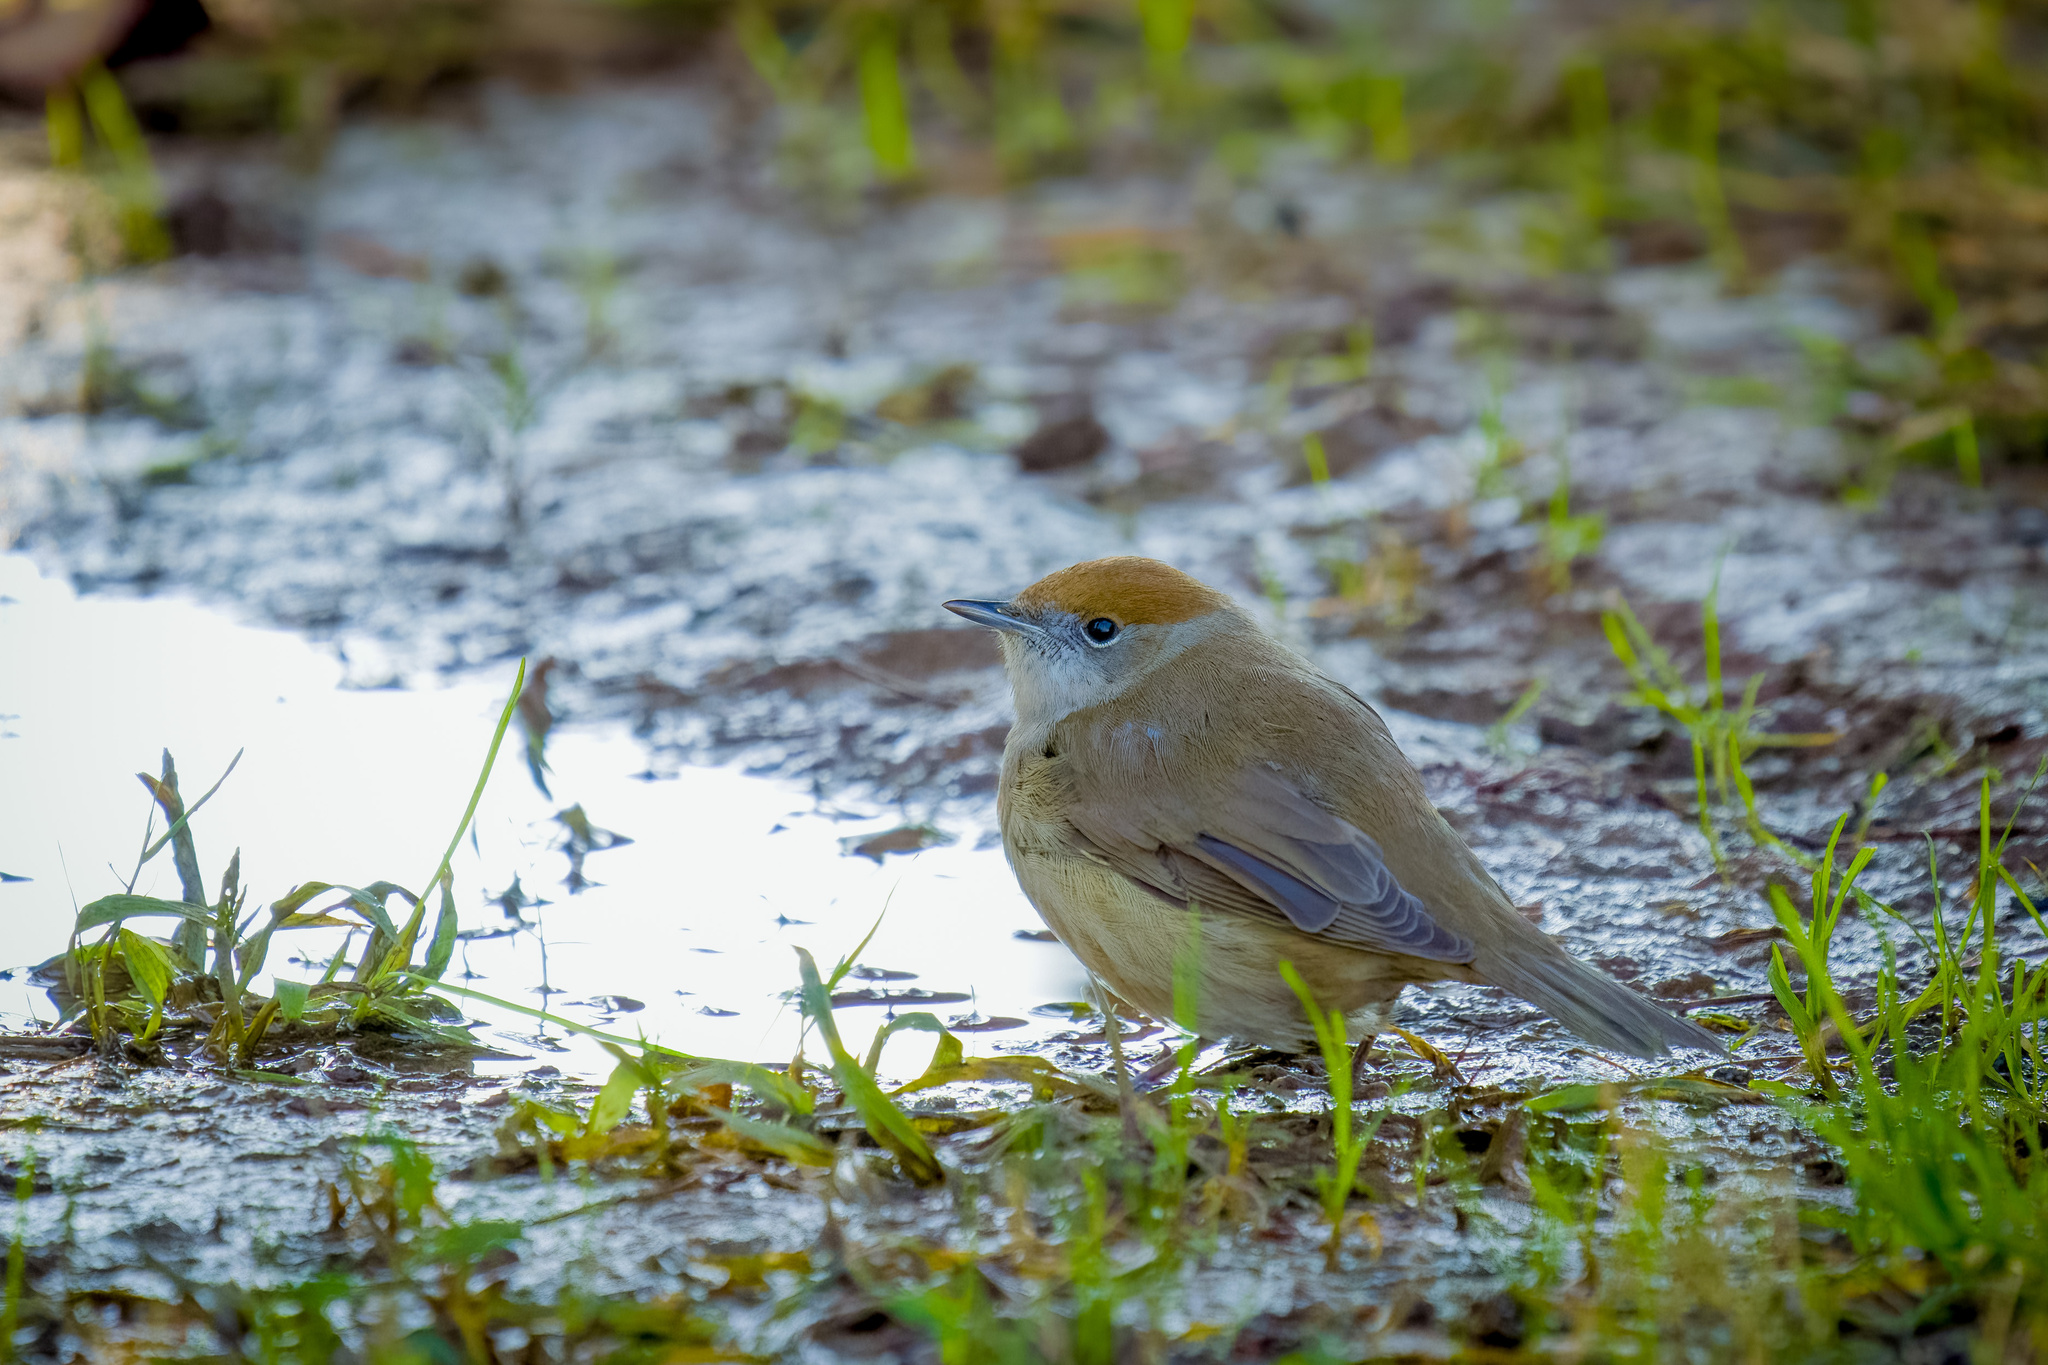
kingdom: Animalia
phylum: Chordata
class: Aves
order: Passeriformes
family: Sylviidae
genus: Sylvia
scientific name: Sylvia atricapilla
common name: Eurasian blackcap
